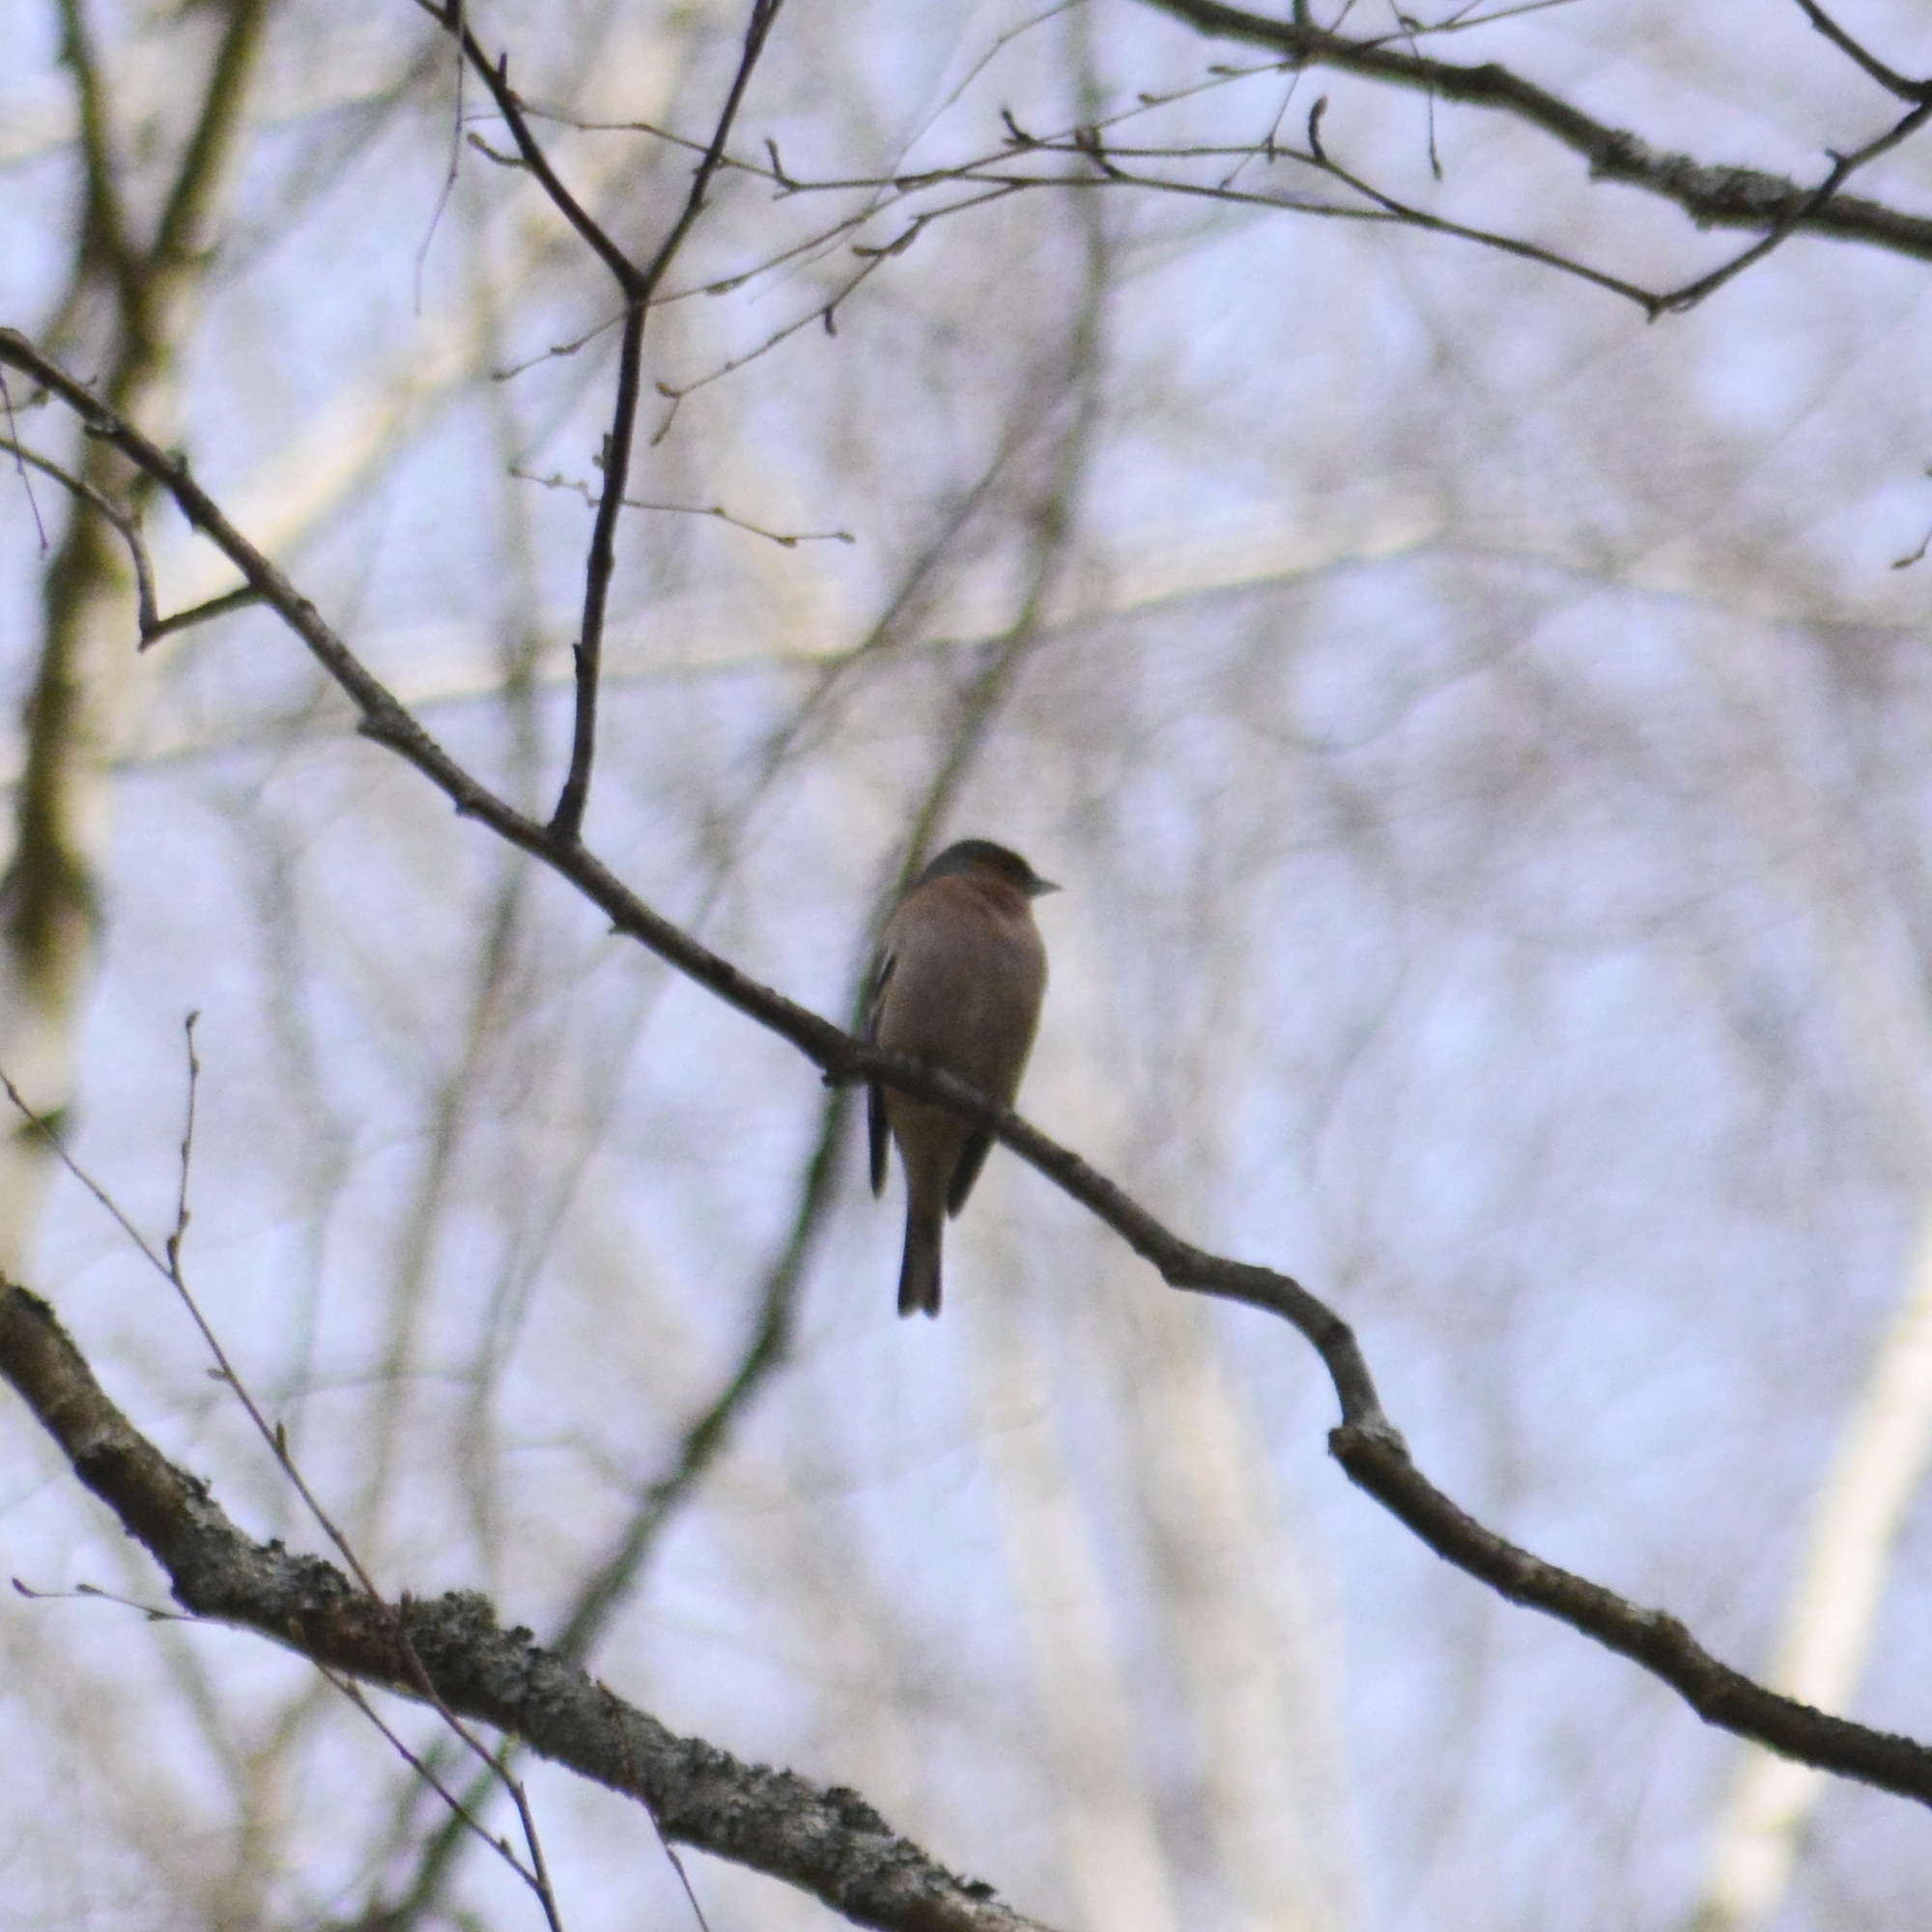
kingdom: Animalia
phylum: Chordata
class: Aves
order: Passeriformes
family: Fringillidae
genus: Fringilla
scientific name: Fringilla coelebs
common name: Common chaffinch
